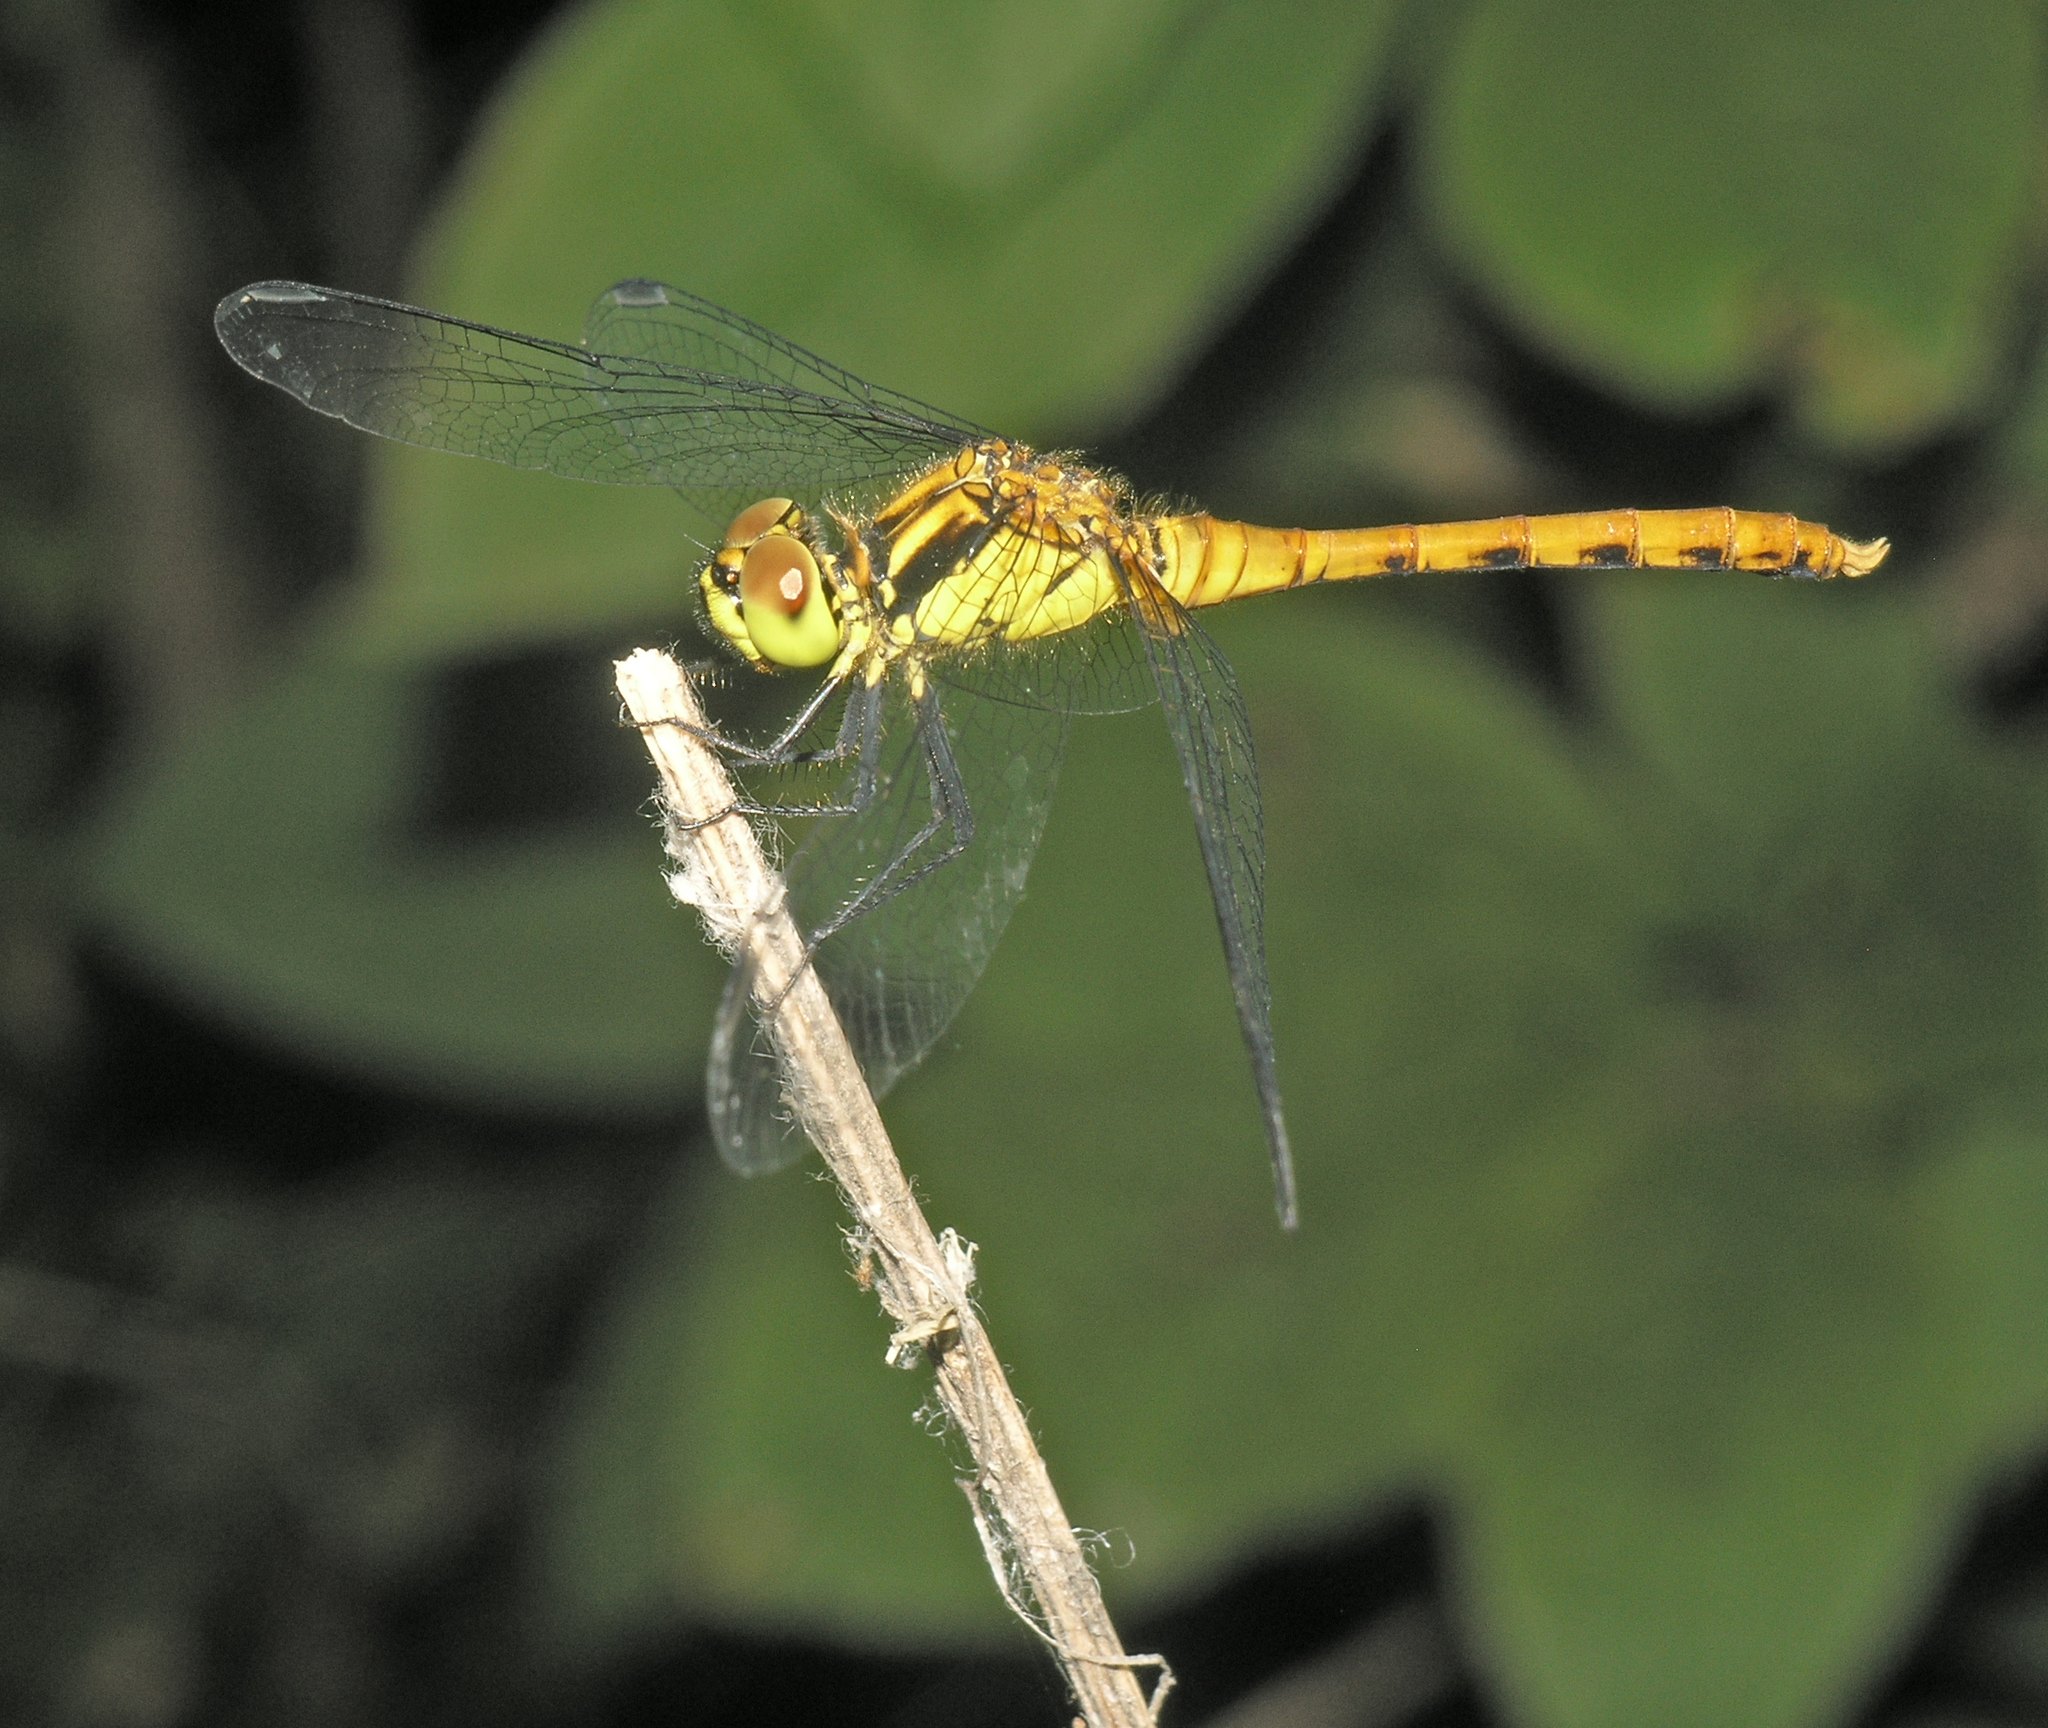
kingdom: Animalia
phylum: Arthropoda
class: Insecta
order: Odonata
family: Libellulidae
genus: Sympetrum
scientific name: Sympetrum eroticum
